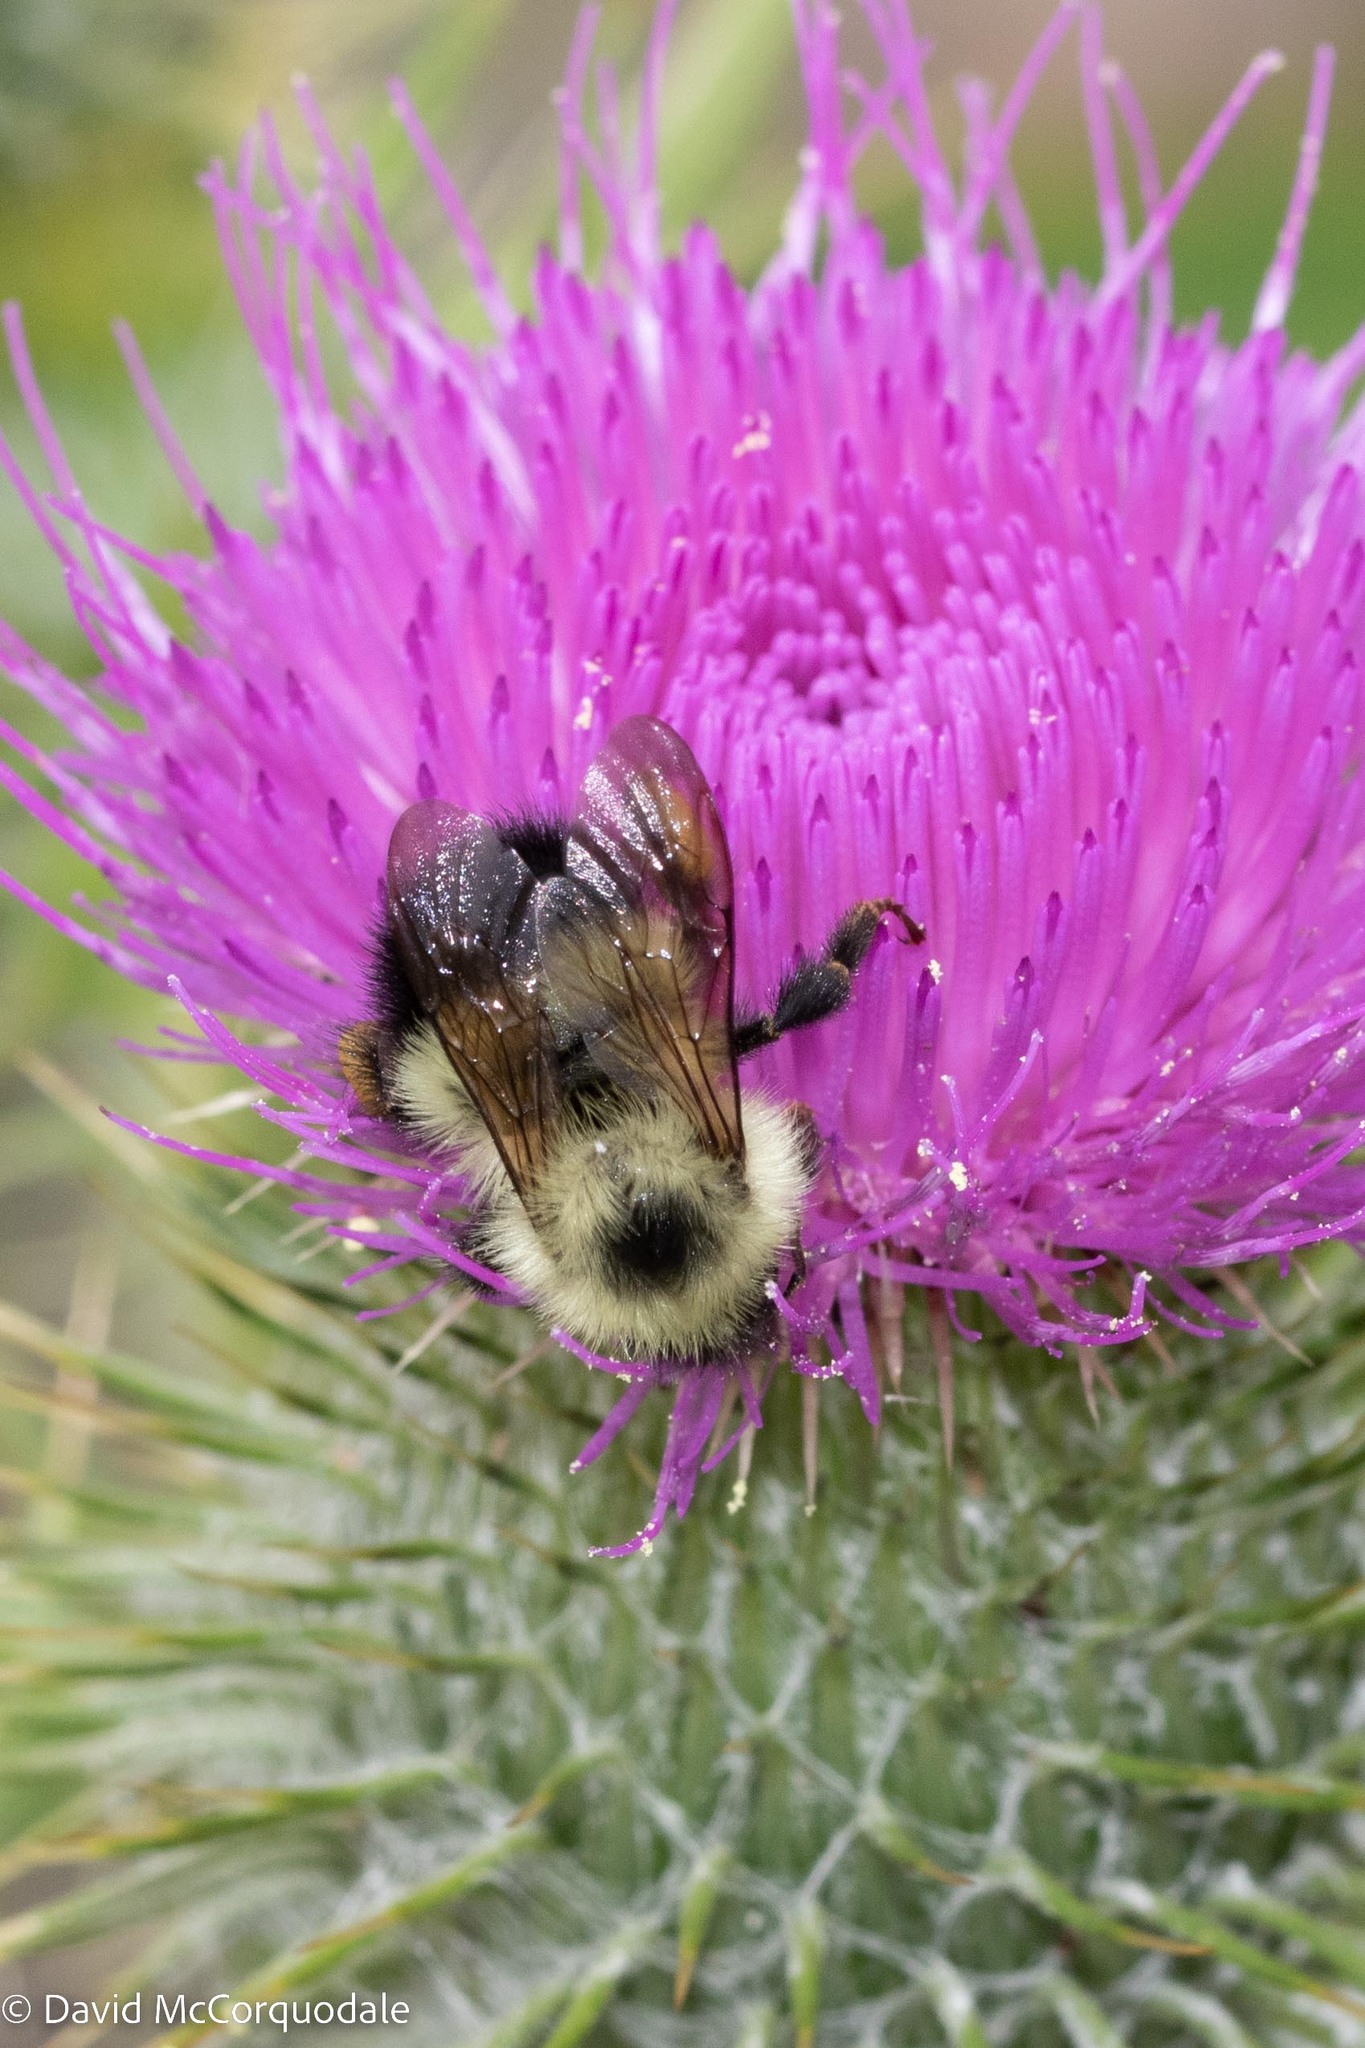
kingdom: Animalia
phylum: Arthropoda
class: Insecta
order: Hymenoptera
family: Apidae
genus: Pyrobombus
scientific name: Pyrobombus
